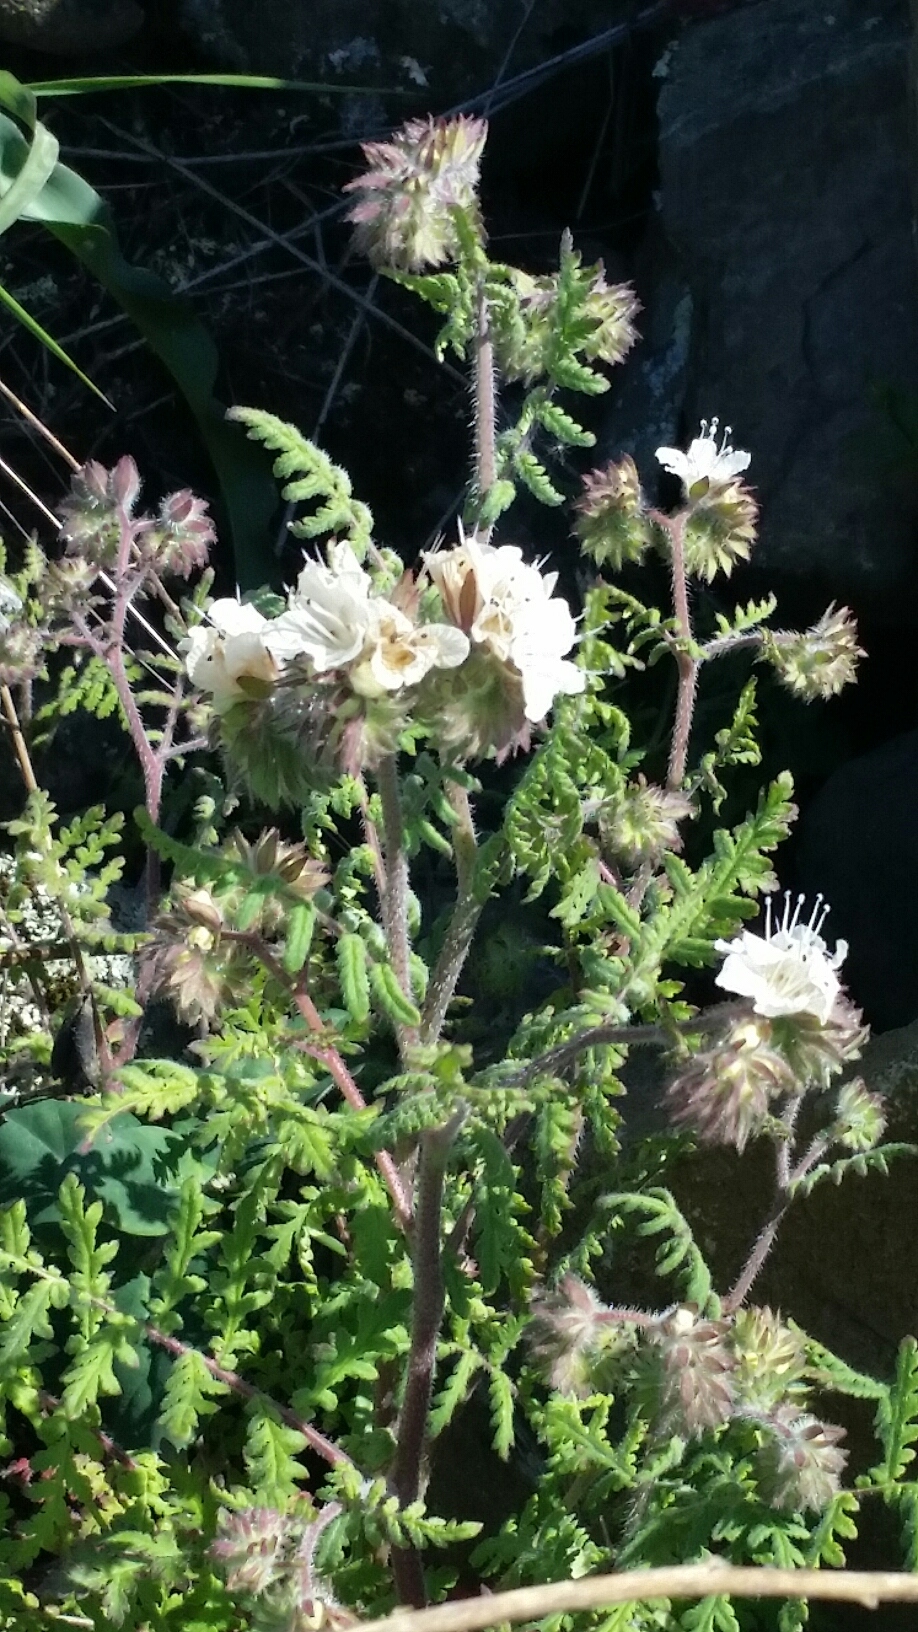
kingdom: Plantae
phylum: Tracheophyta
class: Magnoliopsida
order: Boraginales
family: Hydrophyllaceae
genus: Phacelia
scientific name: Phacelia distans
